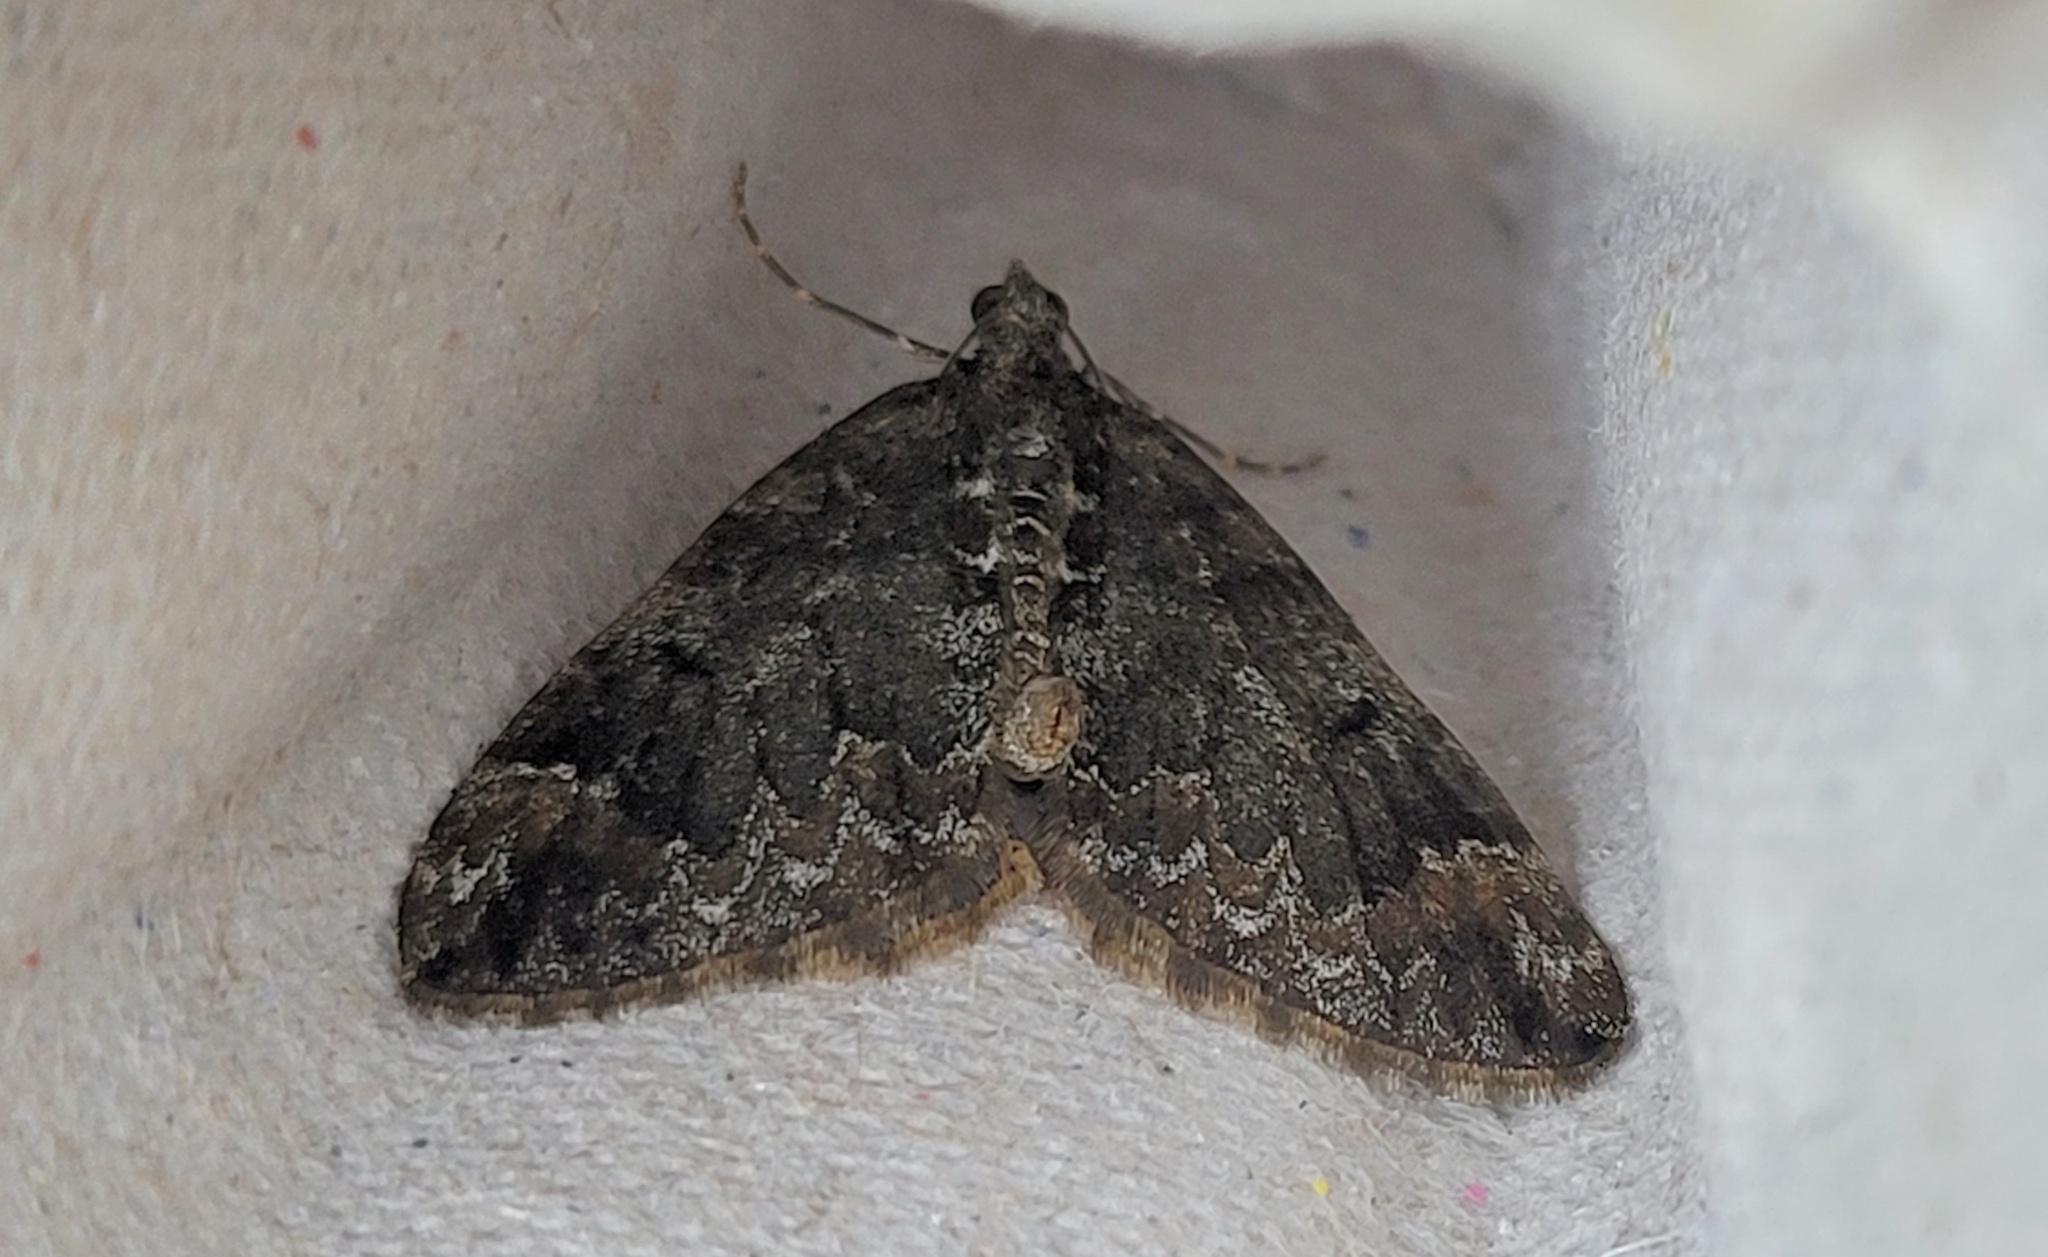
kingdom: Animalia
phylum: Arthropoda
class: Insecta
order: Lepidoptera
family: Geometridae
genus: Dysstroma
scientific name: Dysstroma truncata
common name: Common marbled carpet
